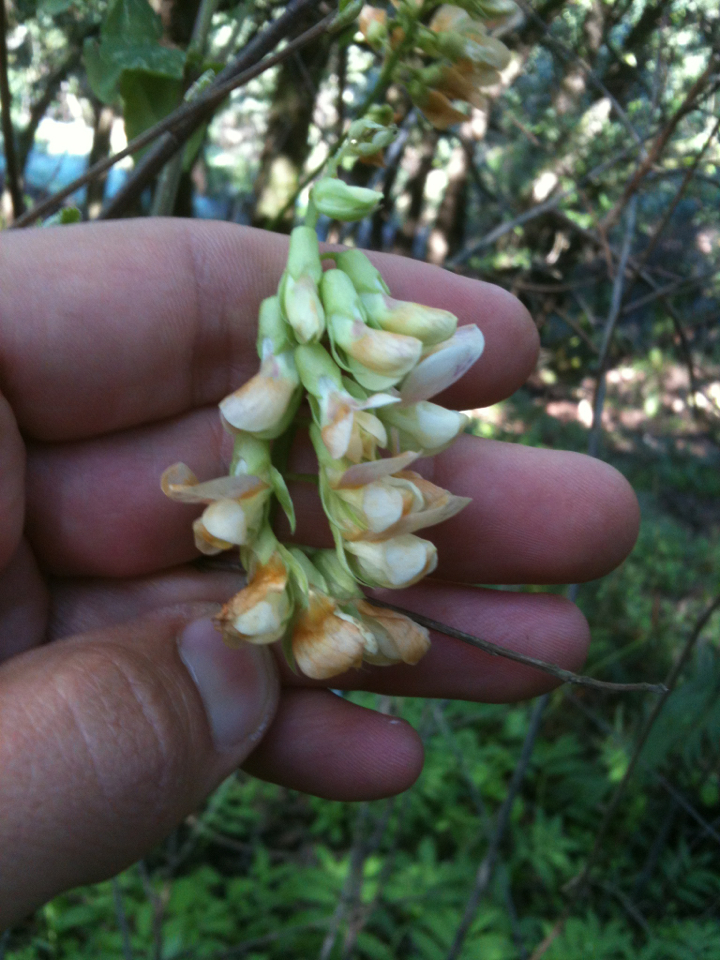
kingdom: Plantae
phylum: Tracheophyta
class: Magnoliopsida
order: Fabales
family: Fabaceae
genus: Lathyrus
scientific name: Lathyrus vestitus
